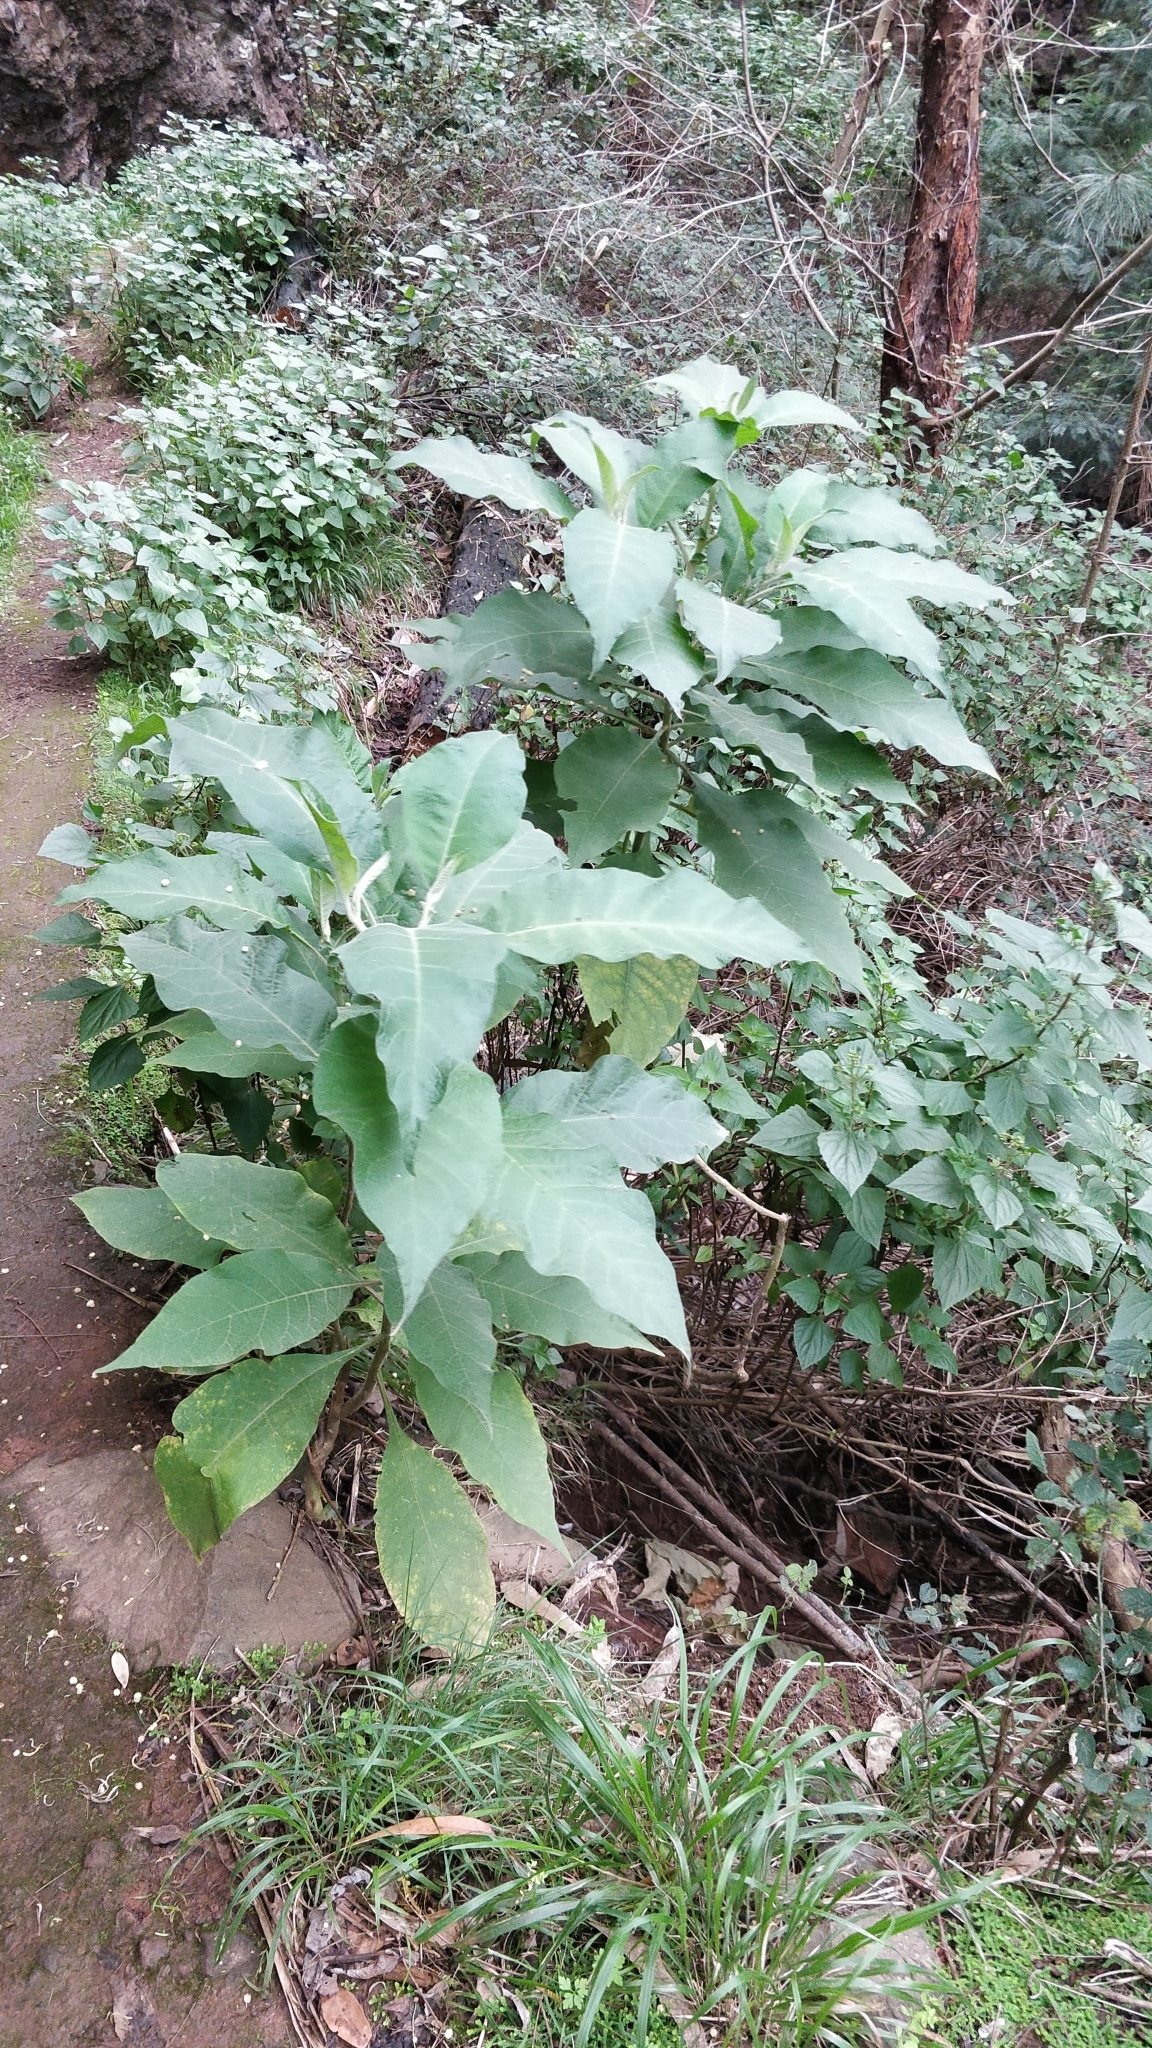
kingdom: Plantae
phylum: Tracheophyta
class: Magnoliopsida
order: Solanales
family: Solanaceae
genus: Solanum
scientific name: Solanum mauritianum
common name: Earleaf nightshade
